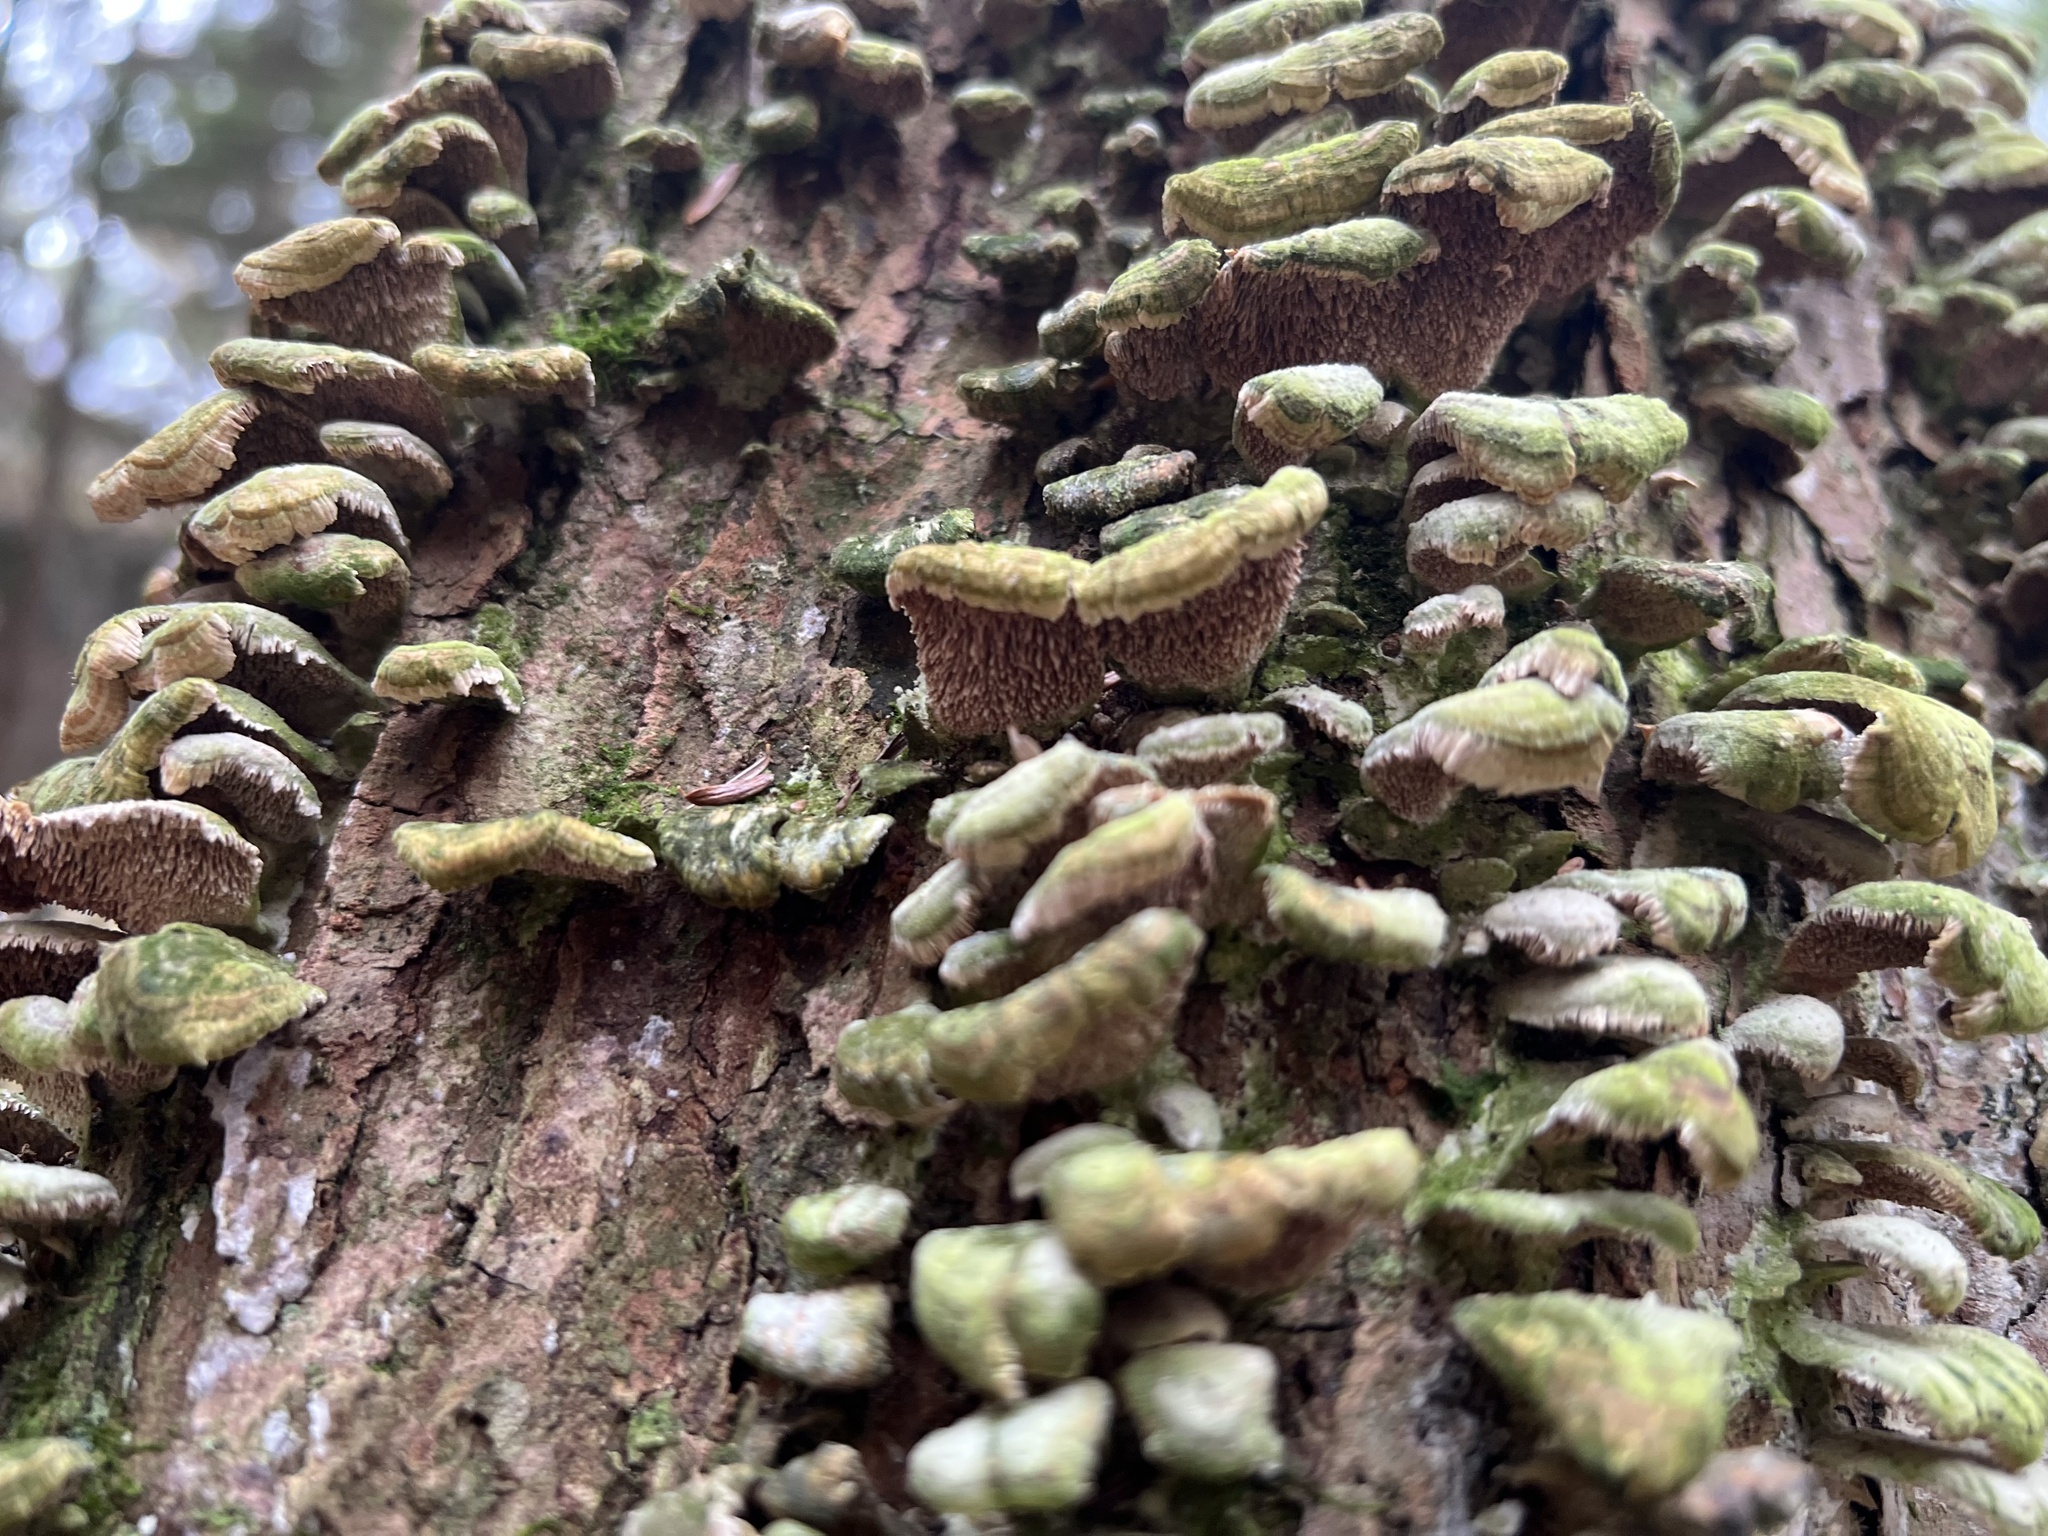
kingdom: Fungi
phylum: Basidiomycota
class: Agaricomycetes
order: Hymenochaetales
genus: Trichaptum
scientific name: Trichaptum biforme
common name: Violet-toothed polypore
